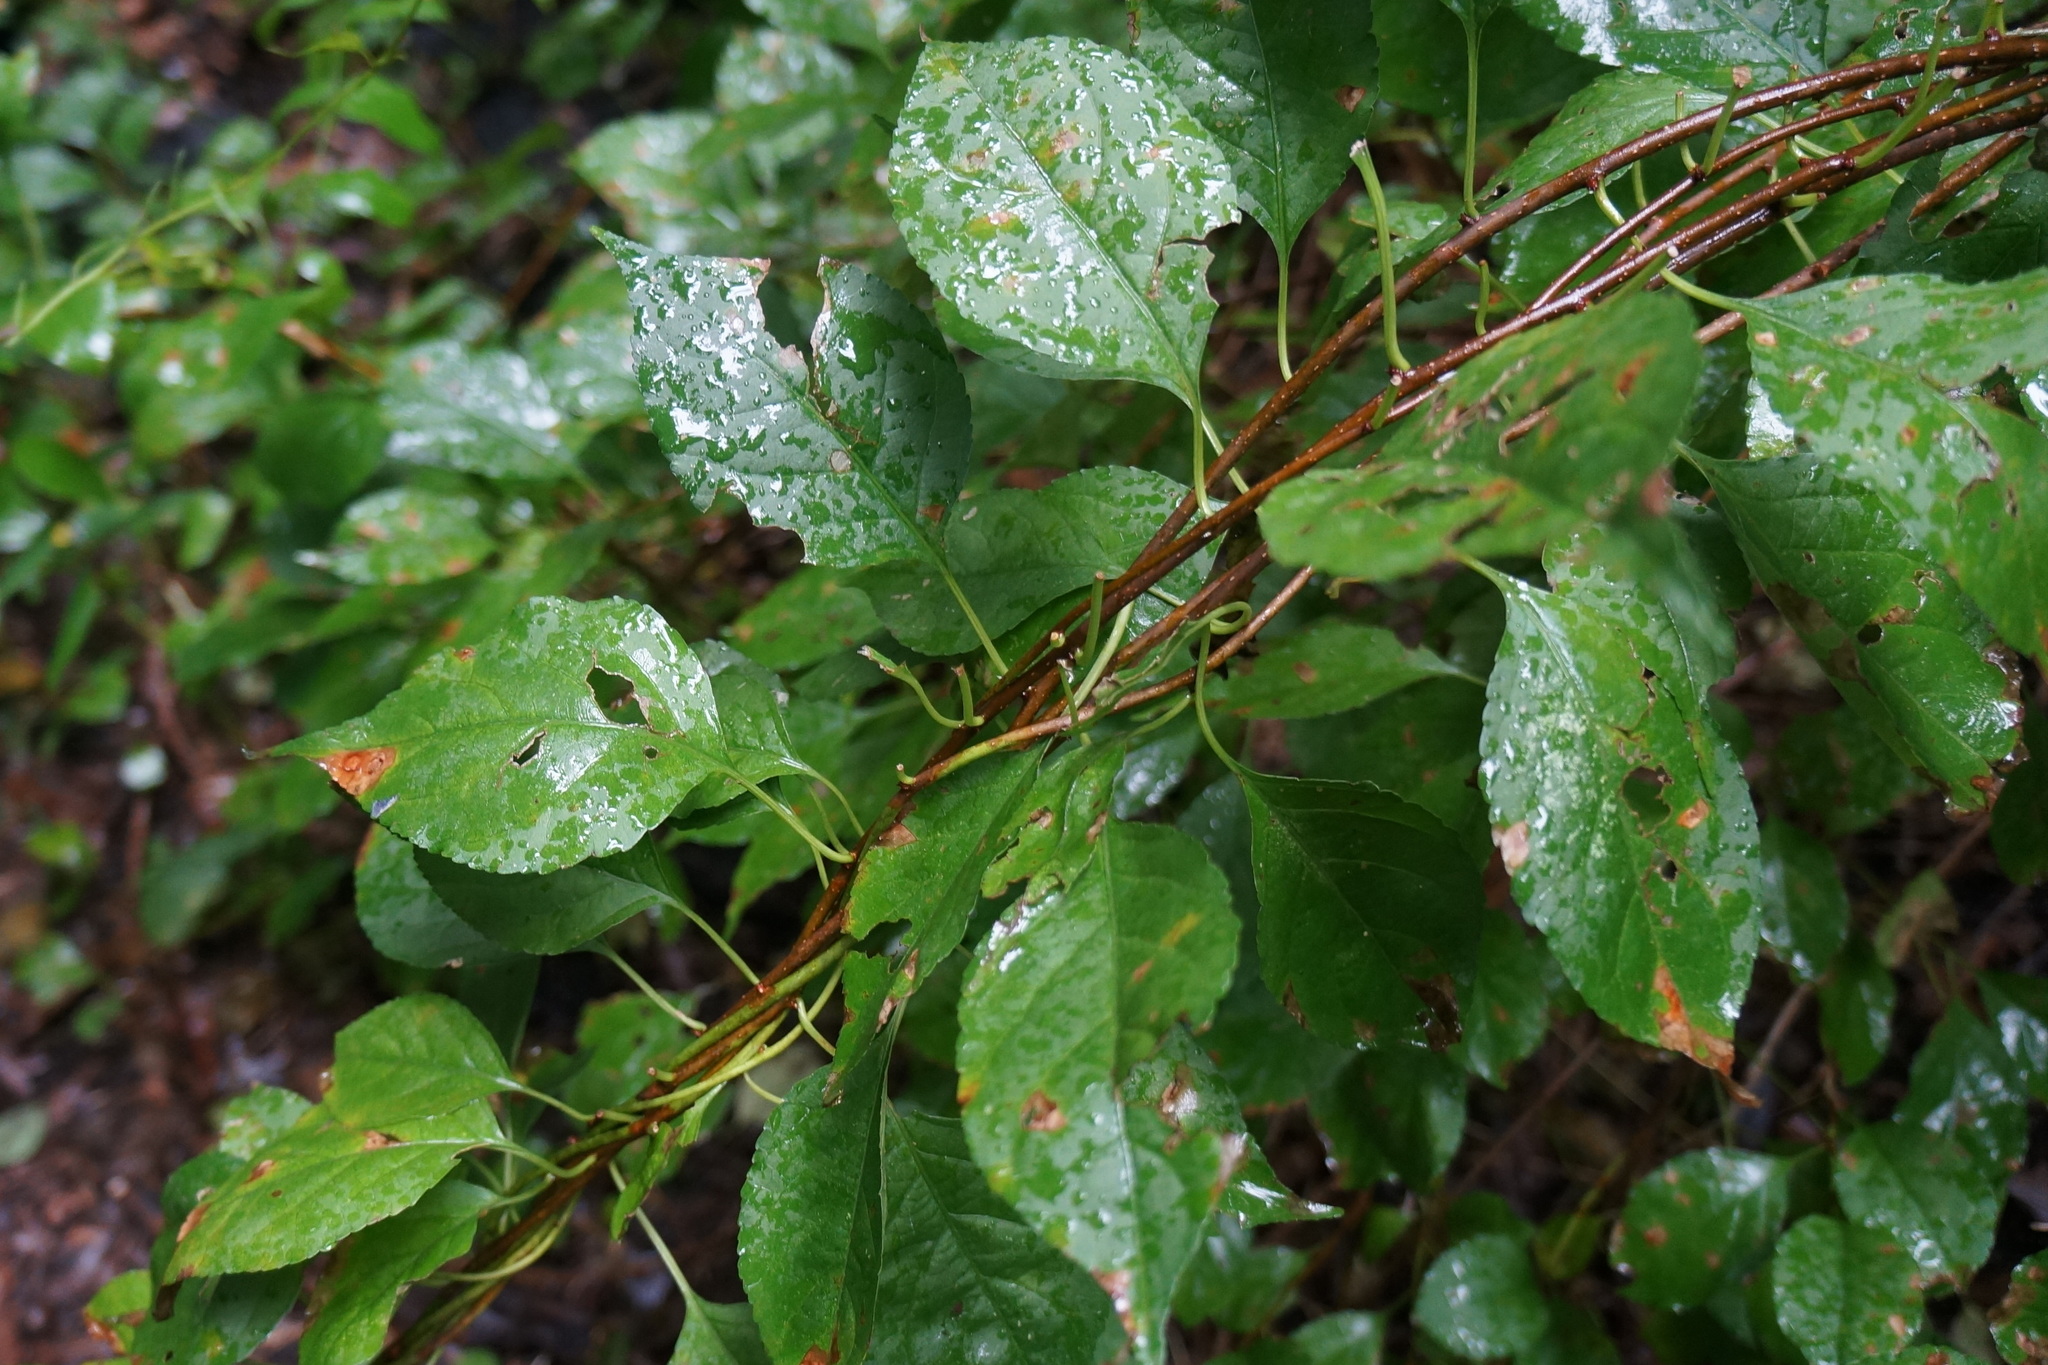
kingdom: Plantae
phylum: Tracheophyta
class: Magnoliopsida
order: Celastrales
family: Celastraceae
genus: Celastrus
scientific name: Celastrus orbiculatus
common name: Oriental bittersweet
